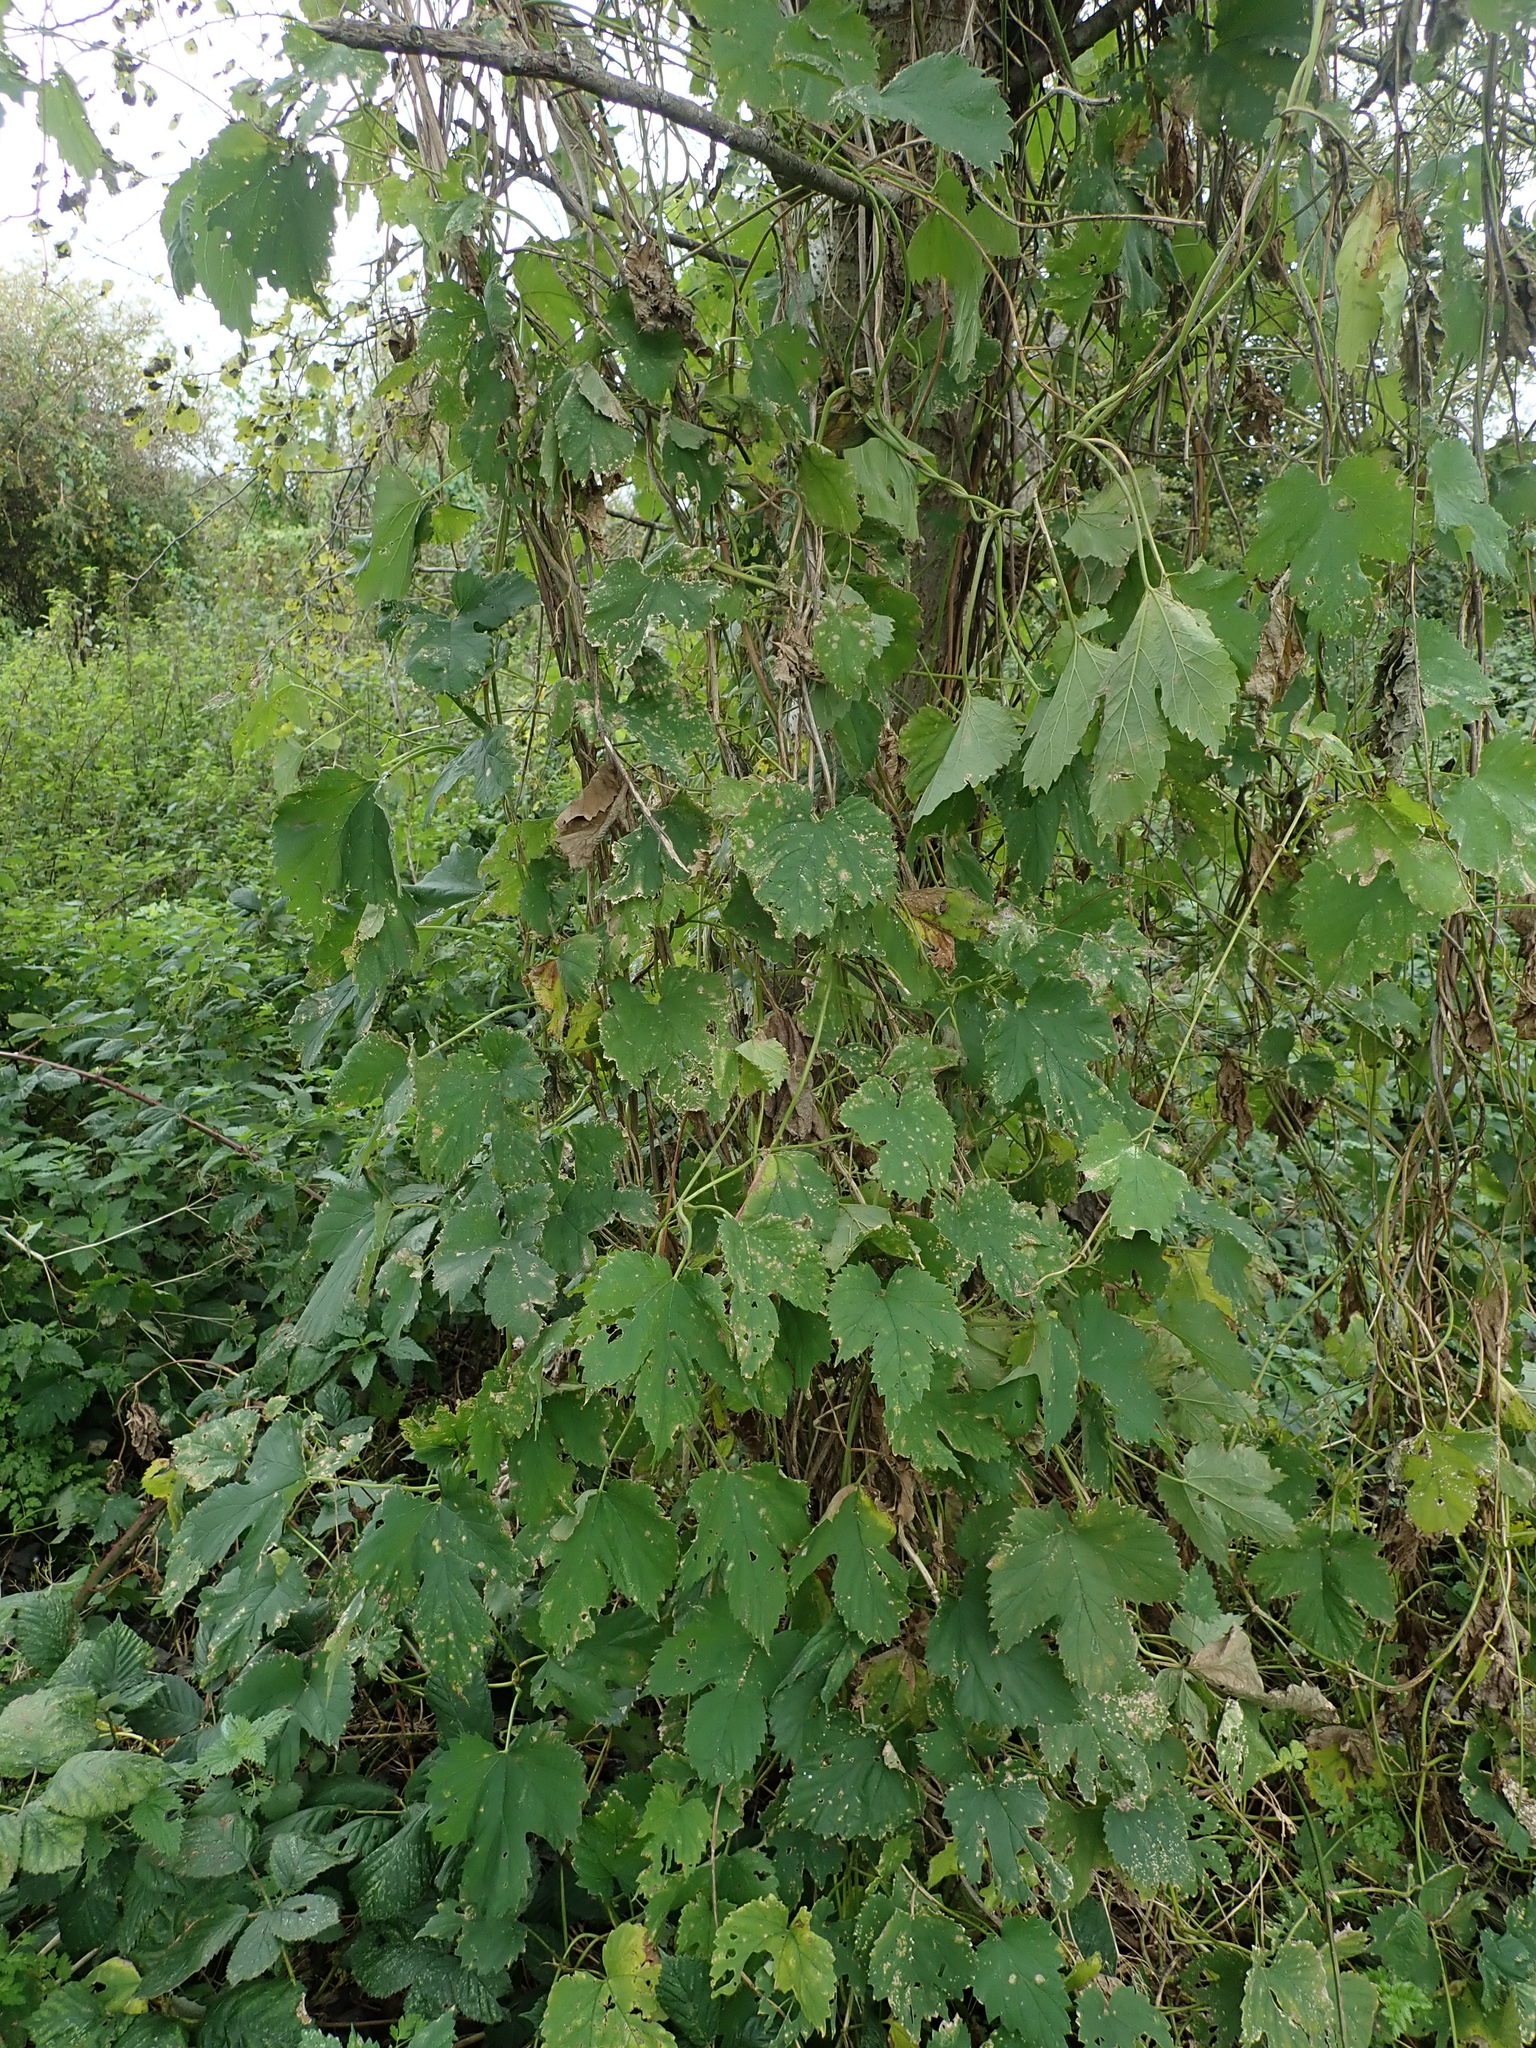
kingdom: Plantae
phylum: Tracheophyta
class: Magnoliopsida
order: Rosales
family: Cannabaceae
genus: Humulus
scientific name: Humulus lupulus
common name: Hop
